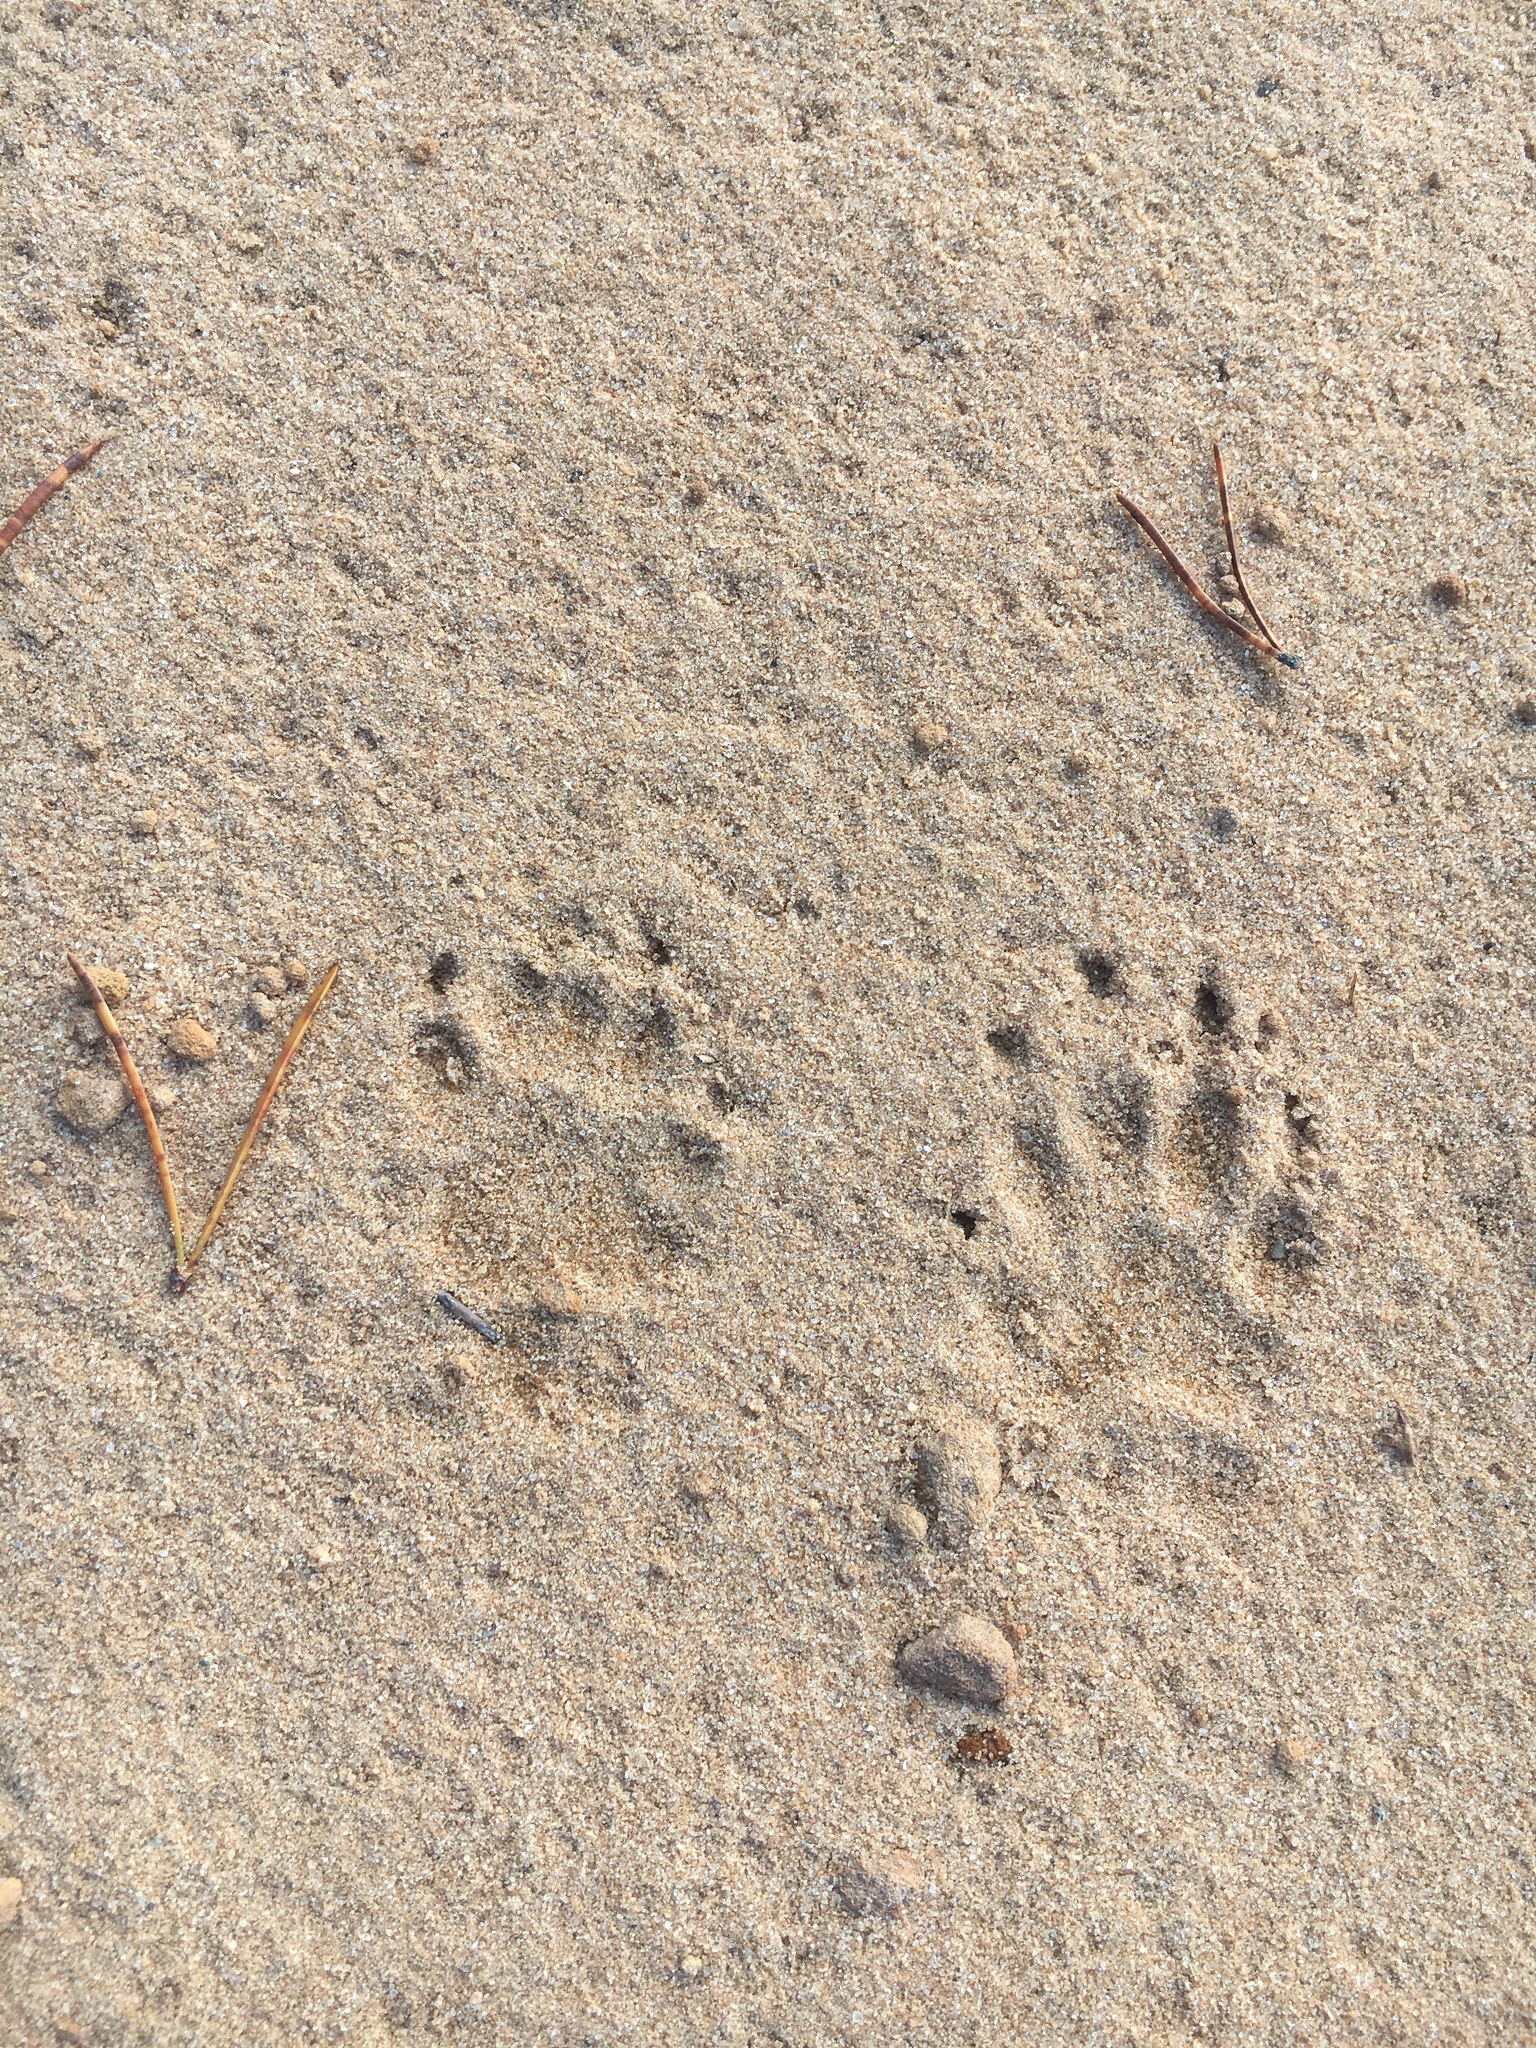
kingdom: Animalia
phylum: Chordata
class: Mammalia
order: Carnivora
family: Mephitidae
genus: Mephitis
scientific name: Mephitis mephitis
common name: Striped skunk
